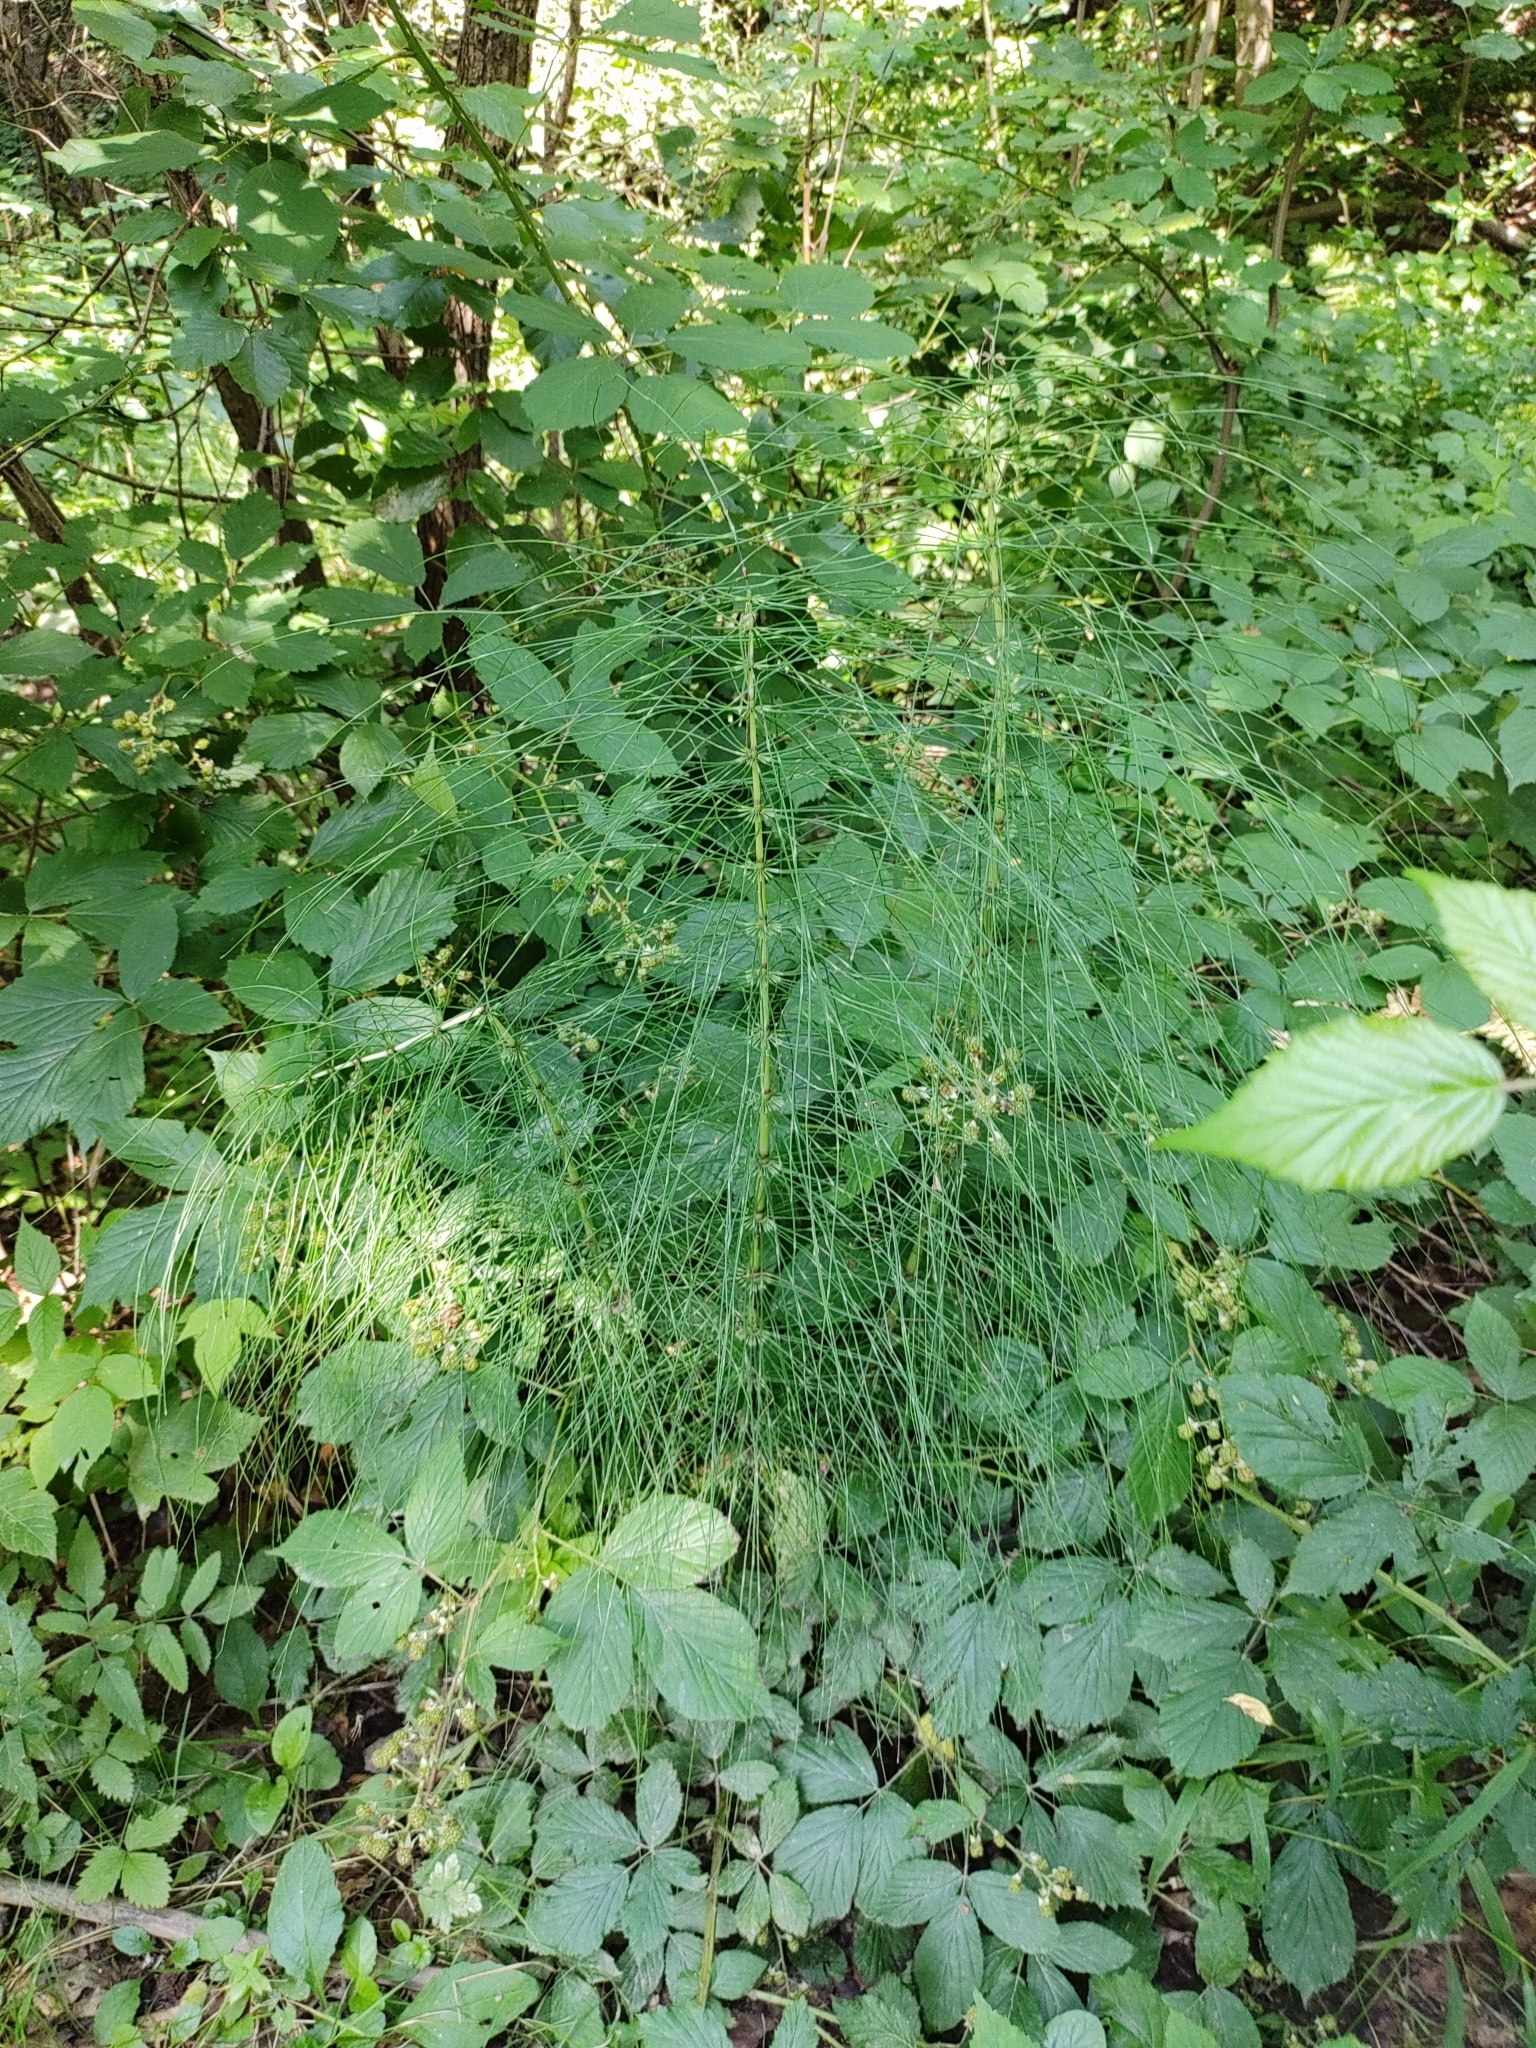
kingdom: Plantae
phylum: Tracheophyta
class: Polypodiopsida
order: Equisetales
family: Equisetaceae
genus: Equisetum
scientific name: Equisetum telmateia
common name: Great horsetail
